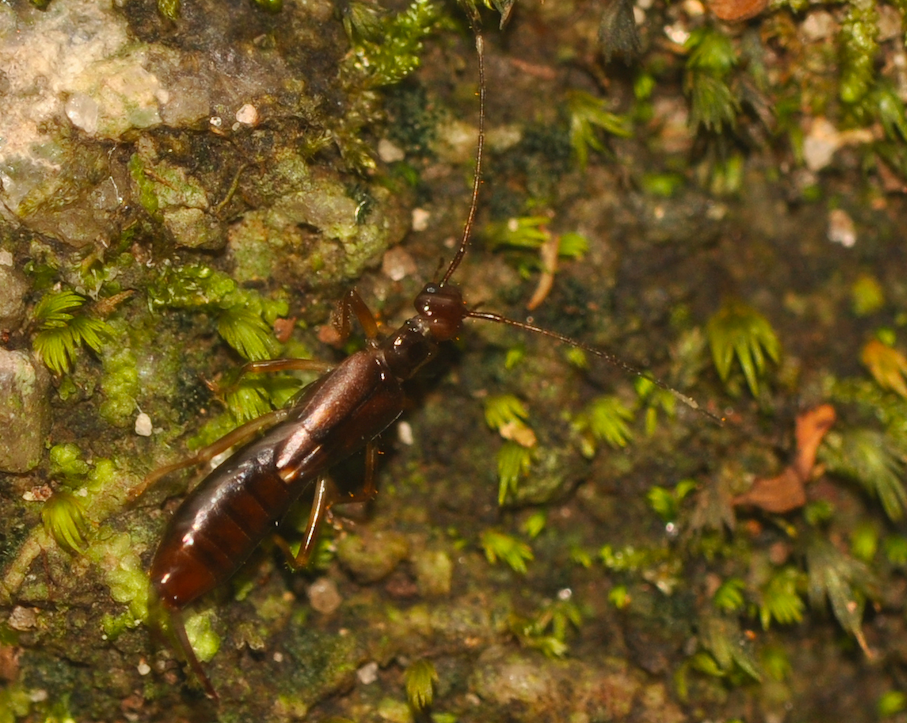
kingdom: Animalia
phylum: Arthropoda
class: Insecta
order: Dermaptera
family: Forficulidae
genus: Afrocosmia
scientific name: Afrocosmia brunnea
